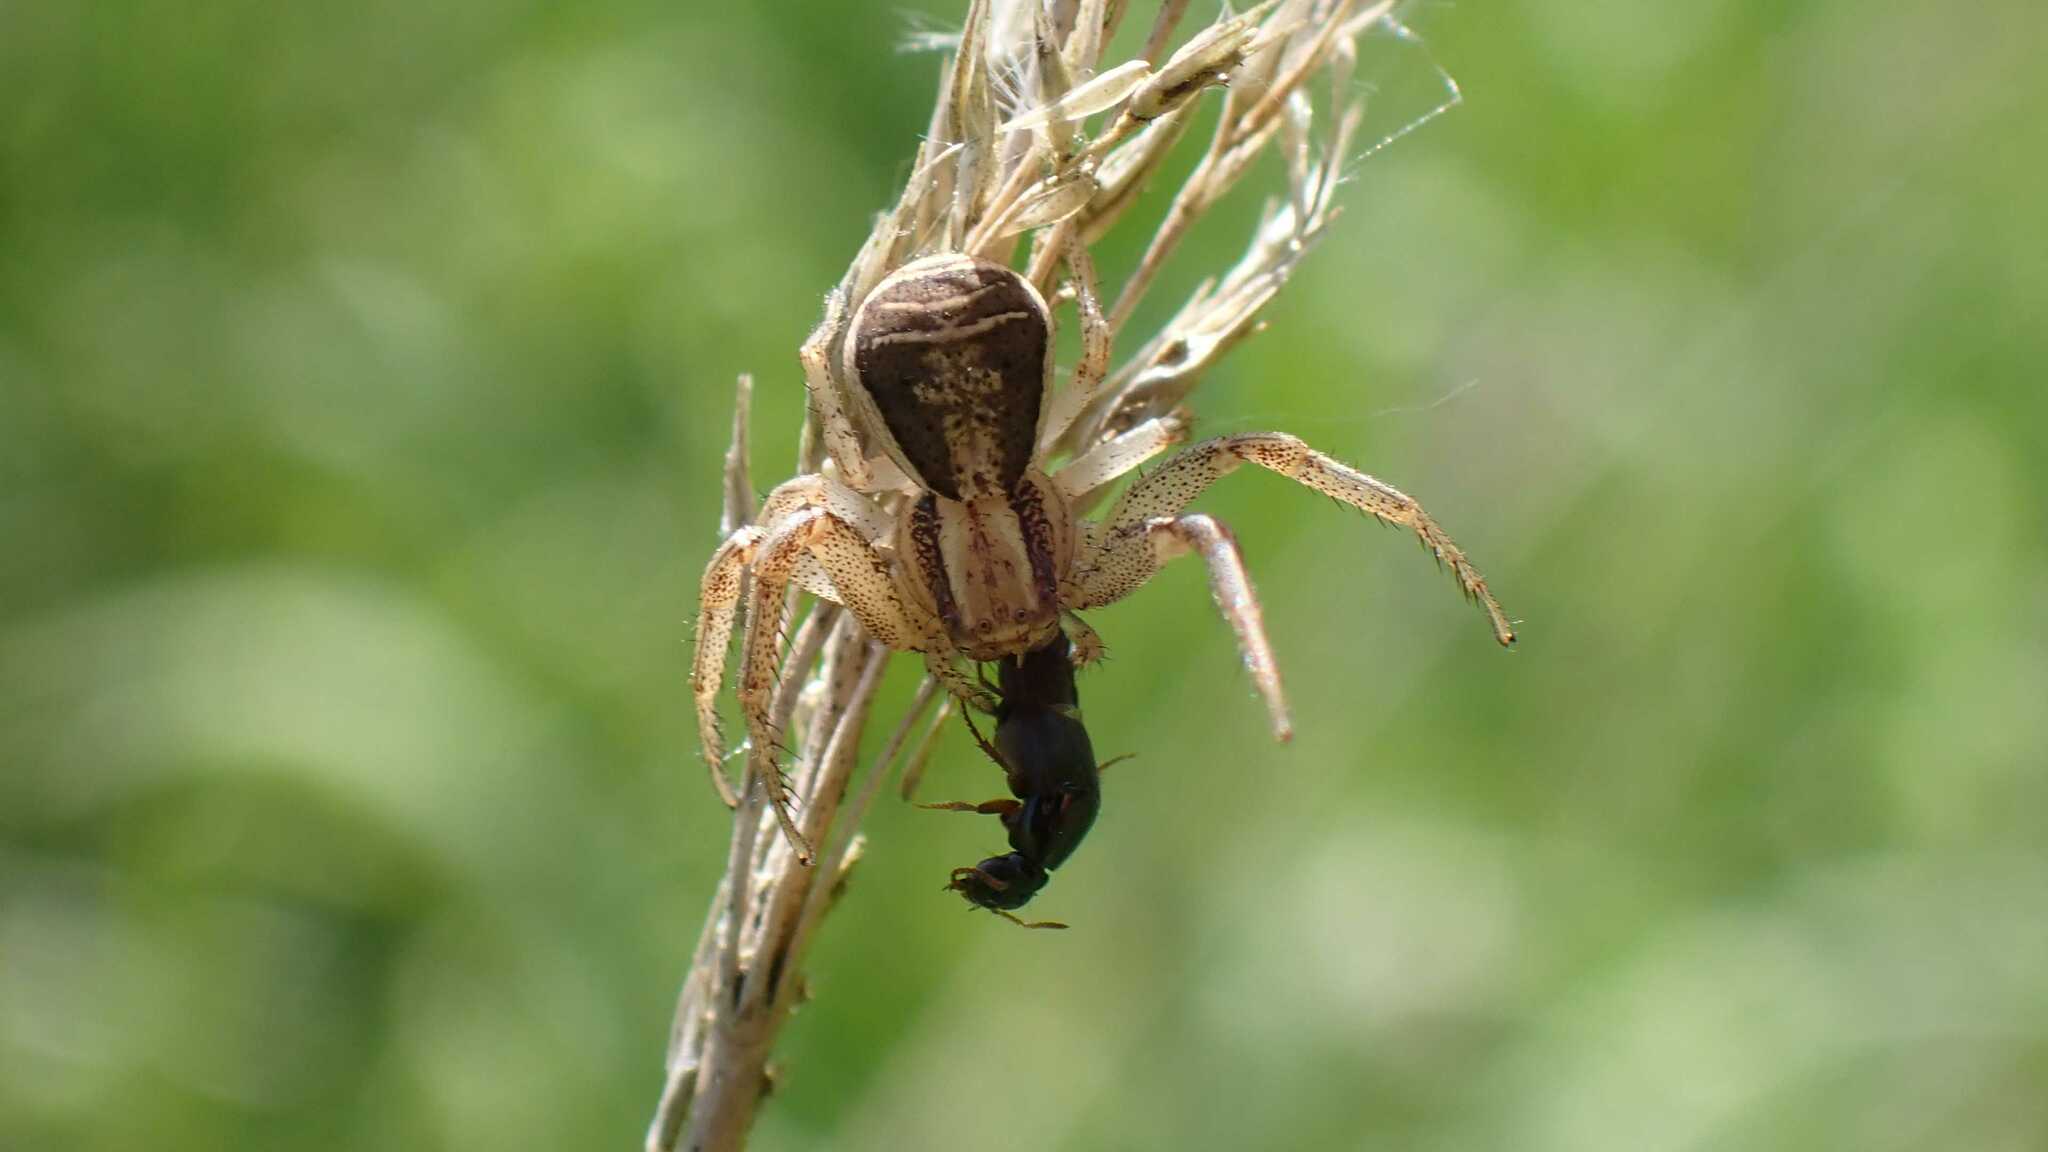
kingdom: Animalia
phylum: Arthropoda
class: Arachnida
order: Araneae
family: Thomisidae
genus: Xysticus
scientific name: Xysticus ulmi
